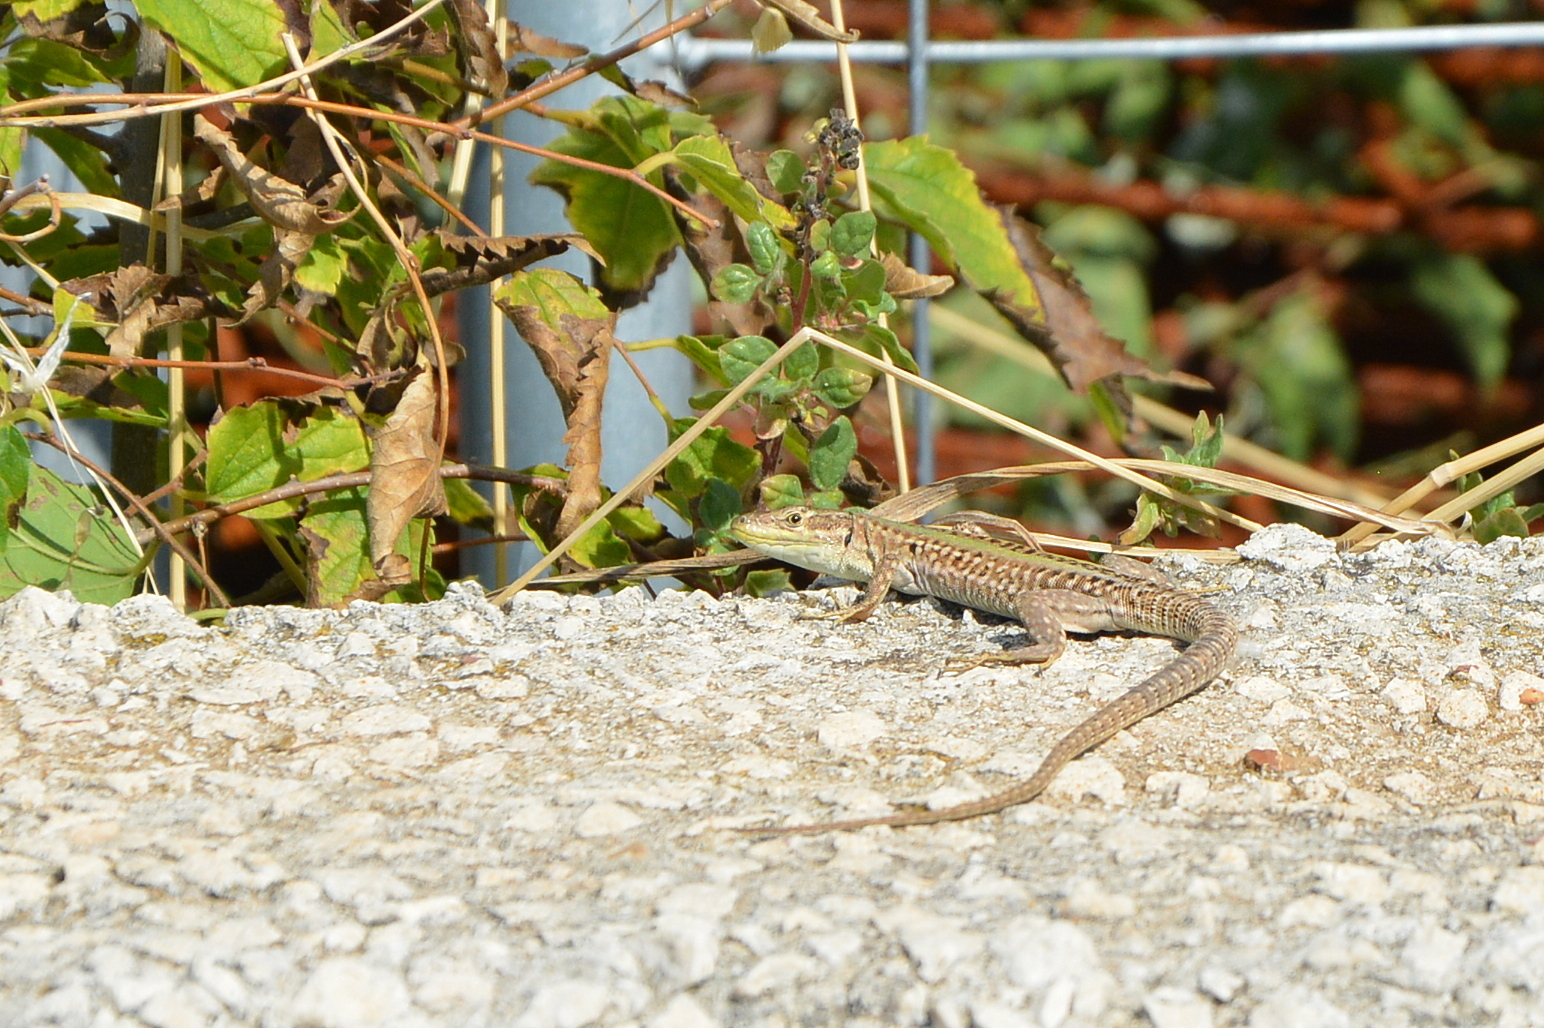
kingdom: Animalia
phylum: Chordata
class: Squamata
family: Lacertidae
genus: Podarcis
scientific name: Podarcis siculus
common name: Italian wall lizard
